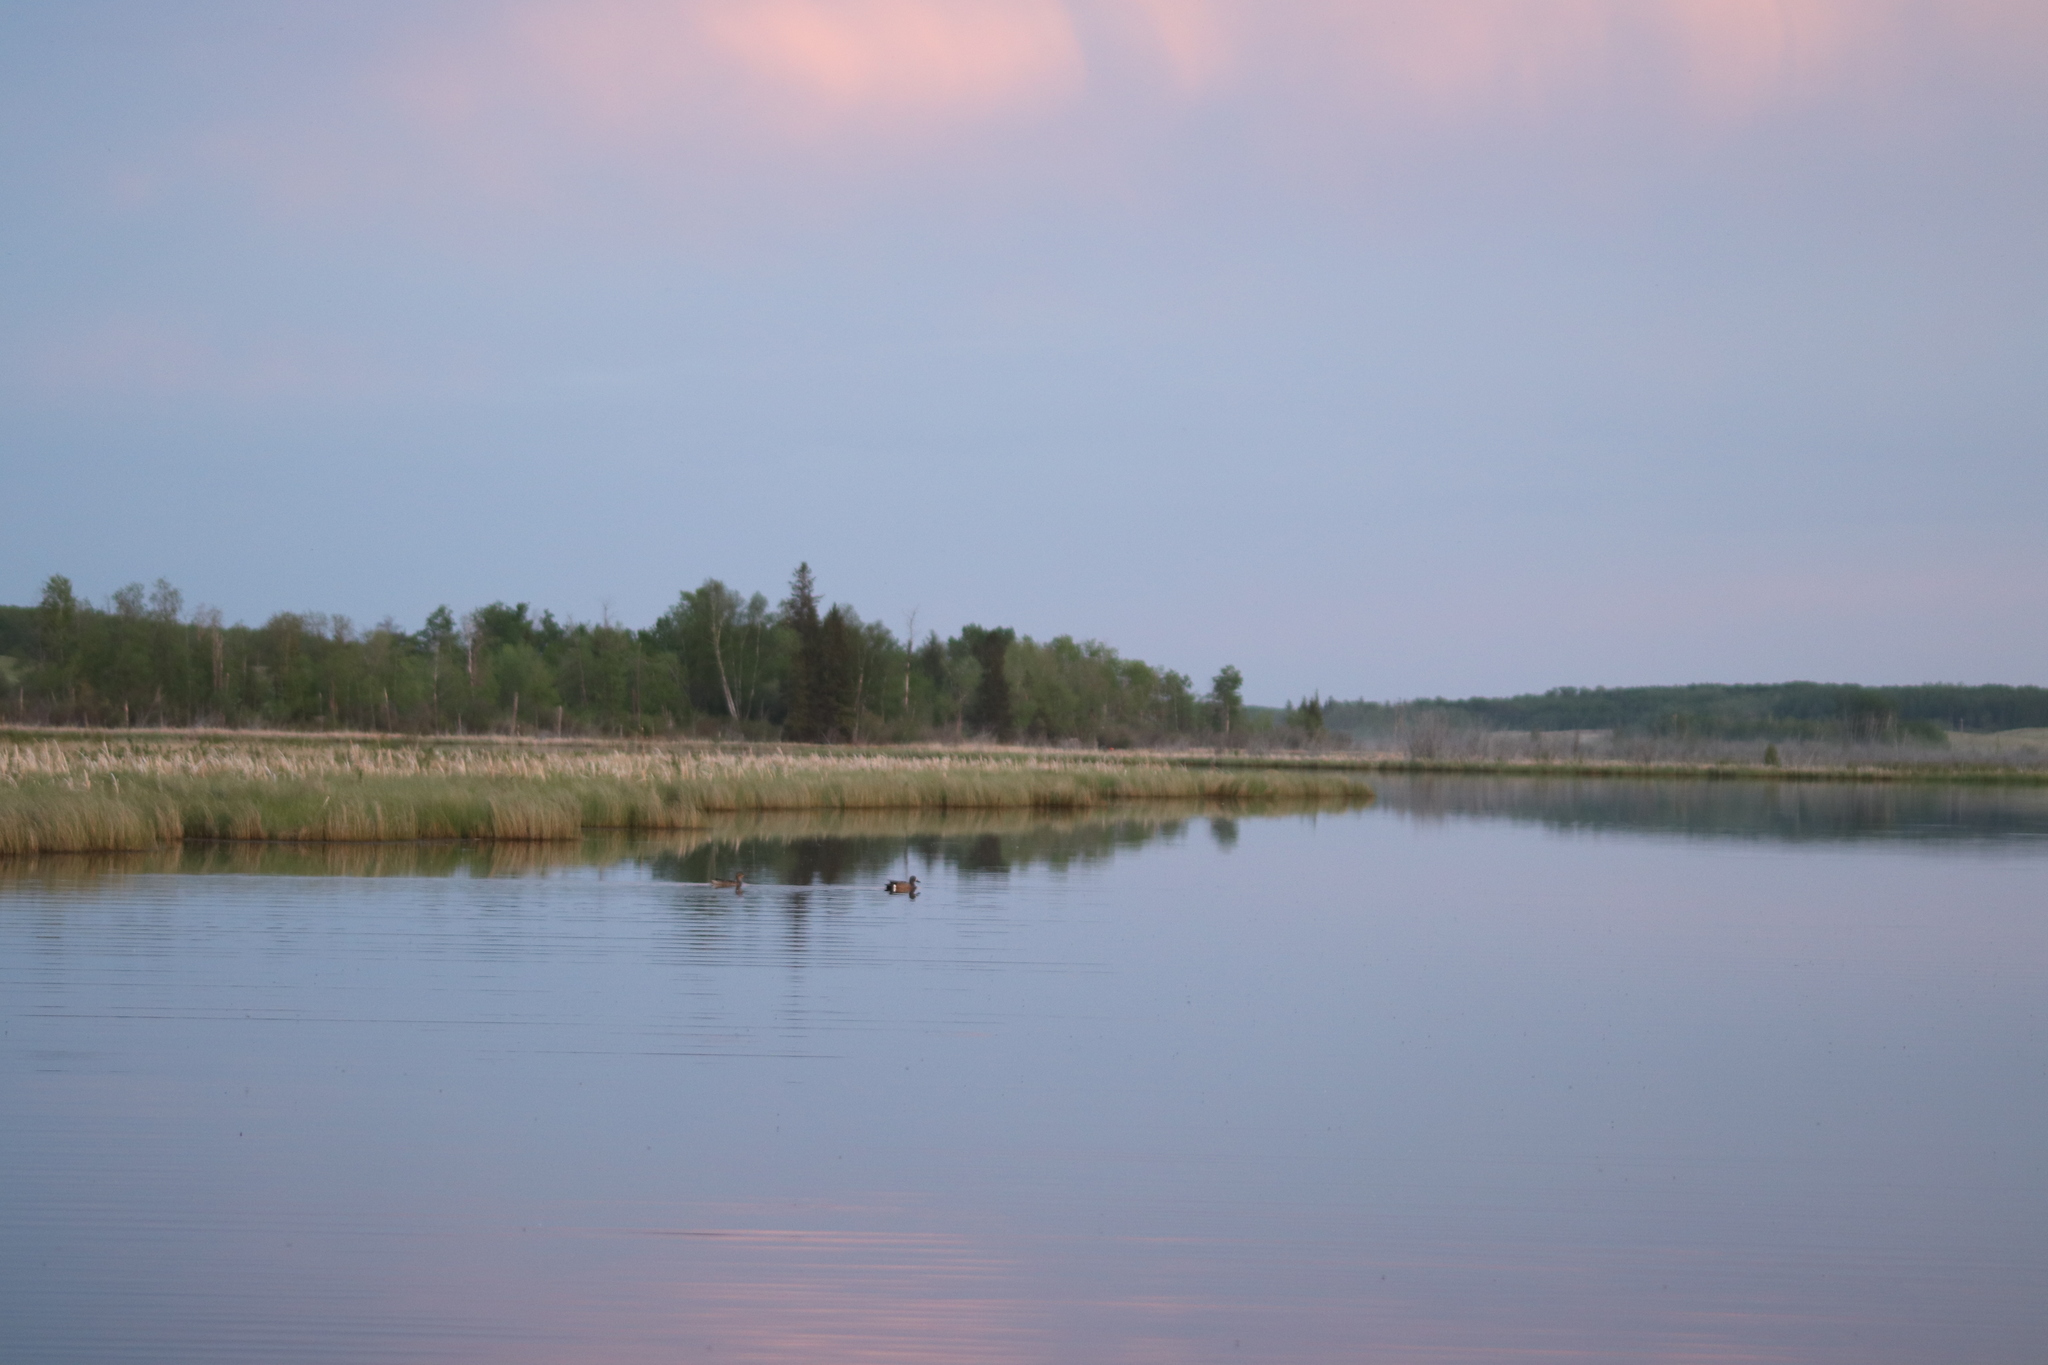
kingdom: Animalia
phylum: Chordata
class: Aves
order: Anseriformes
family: Anatidae
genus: Spatula
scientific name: Spatula discors
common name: Blue-winged teal
